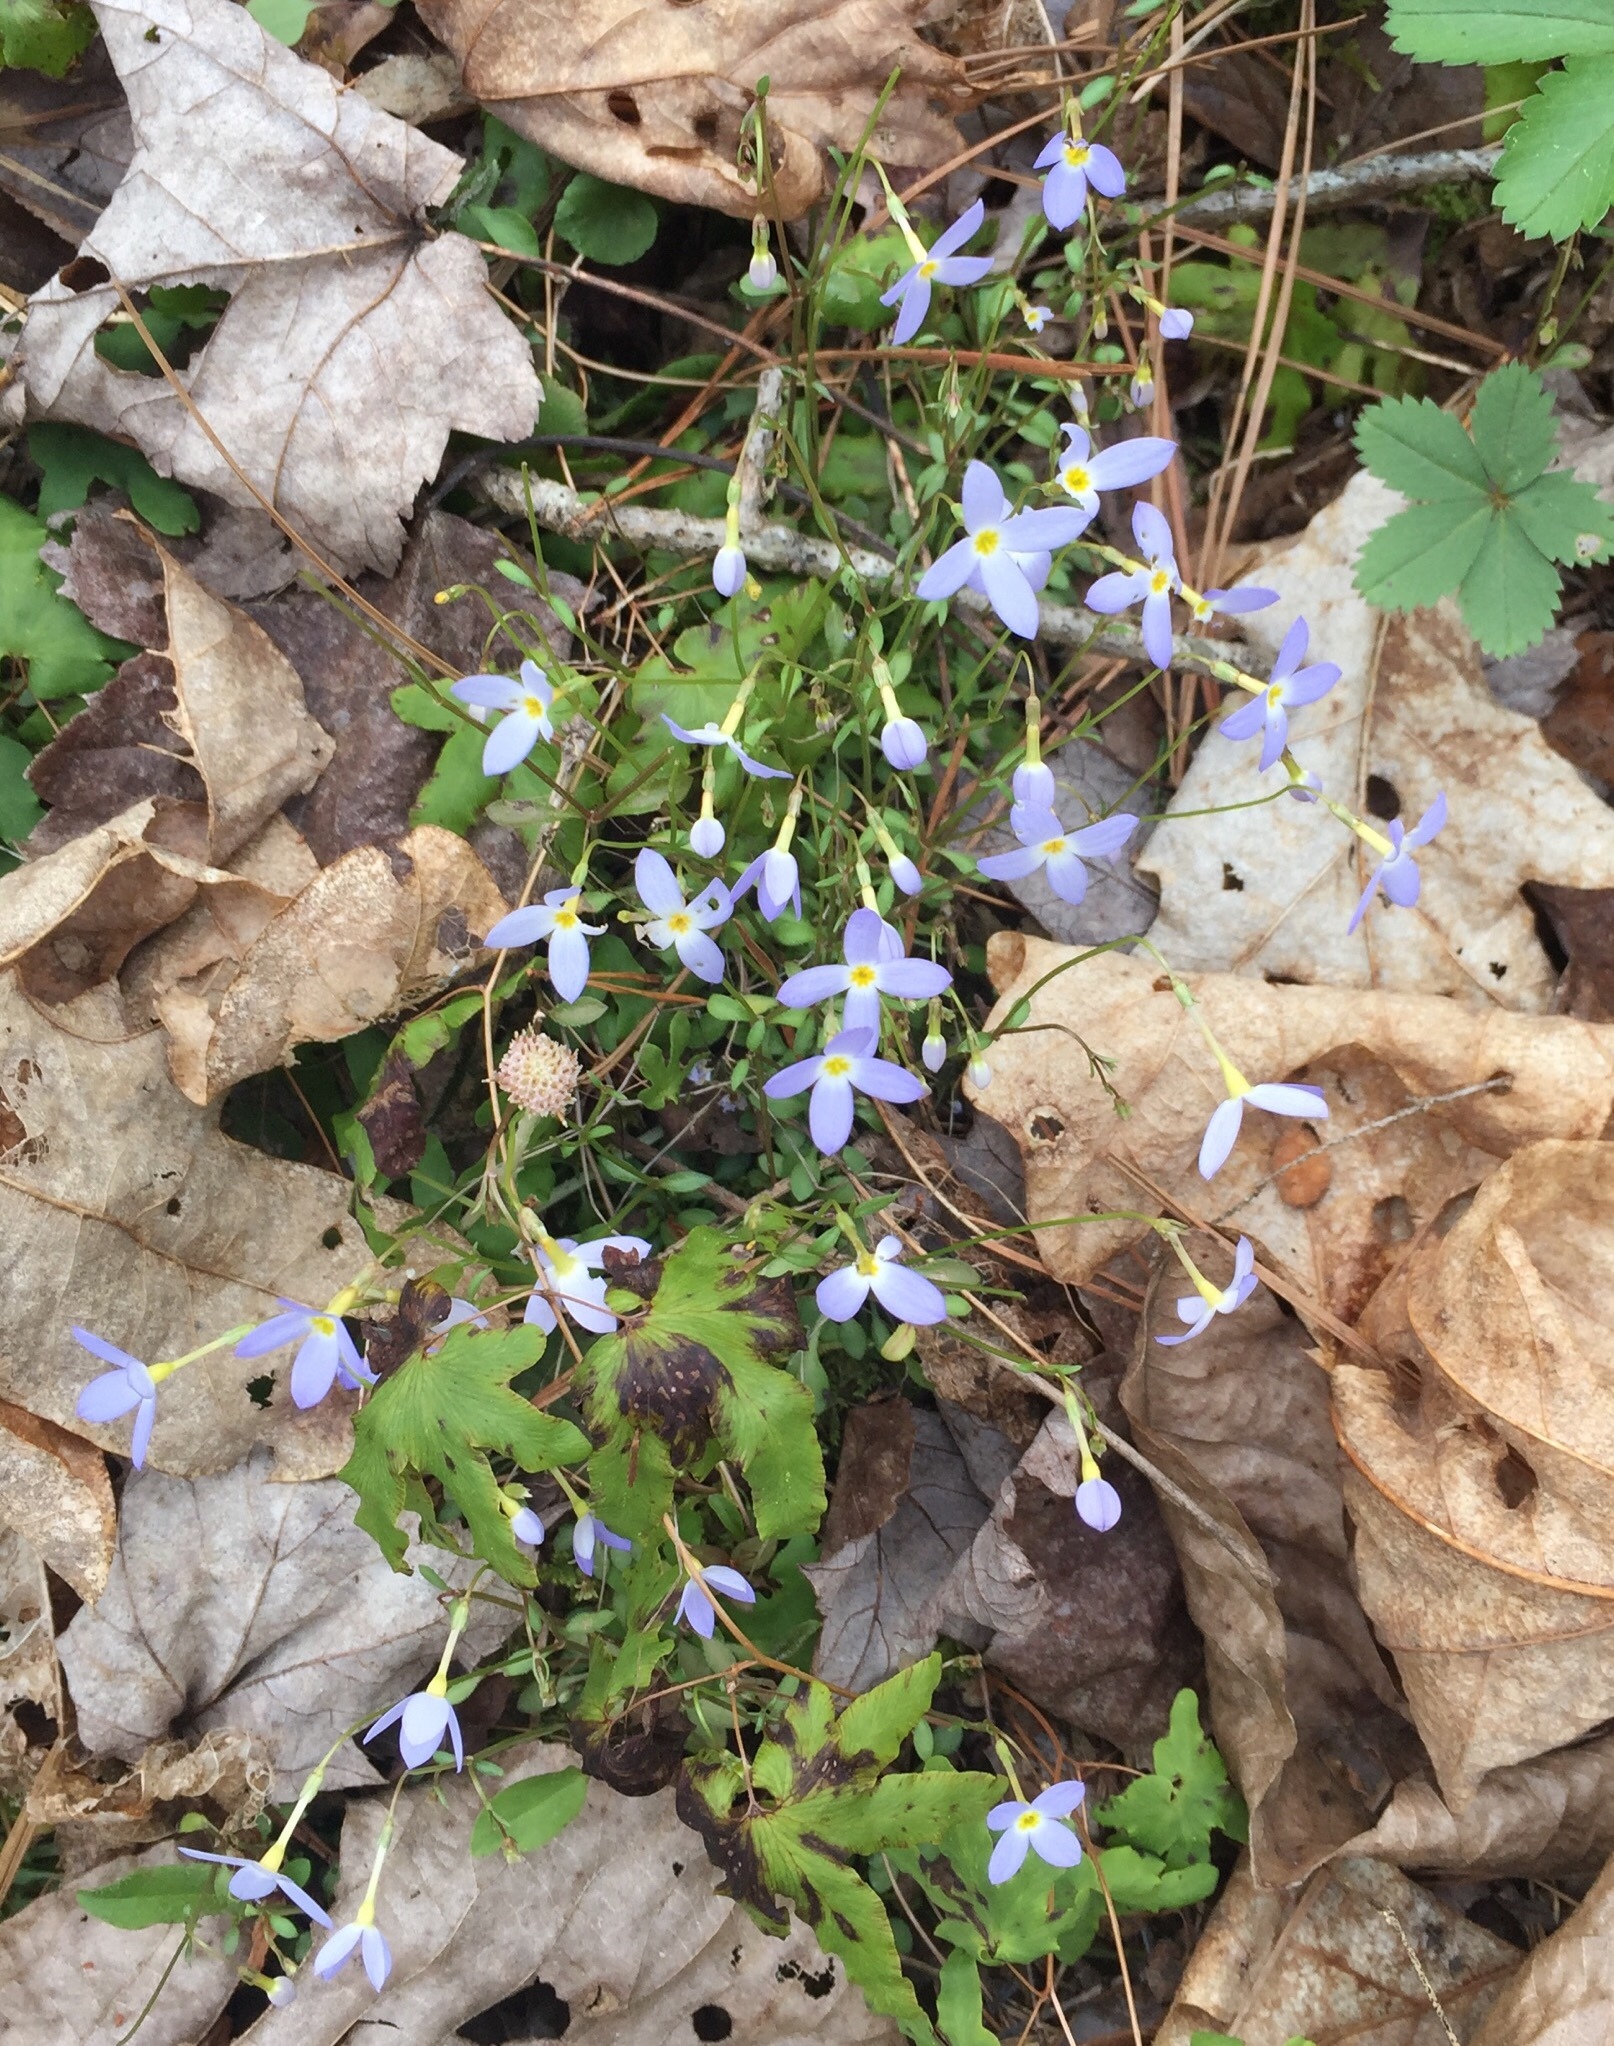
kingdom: Plantae
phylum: Tracheophyta
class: Magnoliopsida
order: Gentianales
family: Rubiaceae
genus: Houstonia
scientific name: Houstonia caerulea
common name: Bluets
